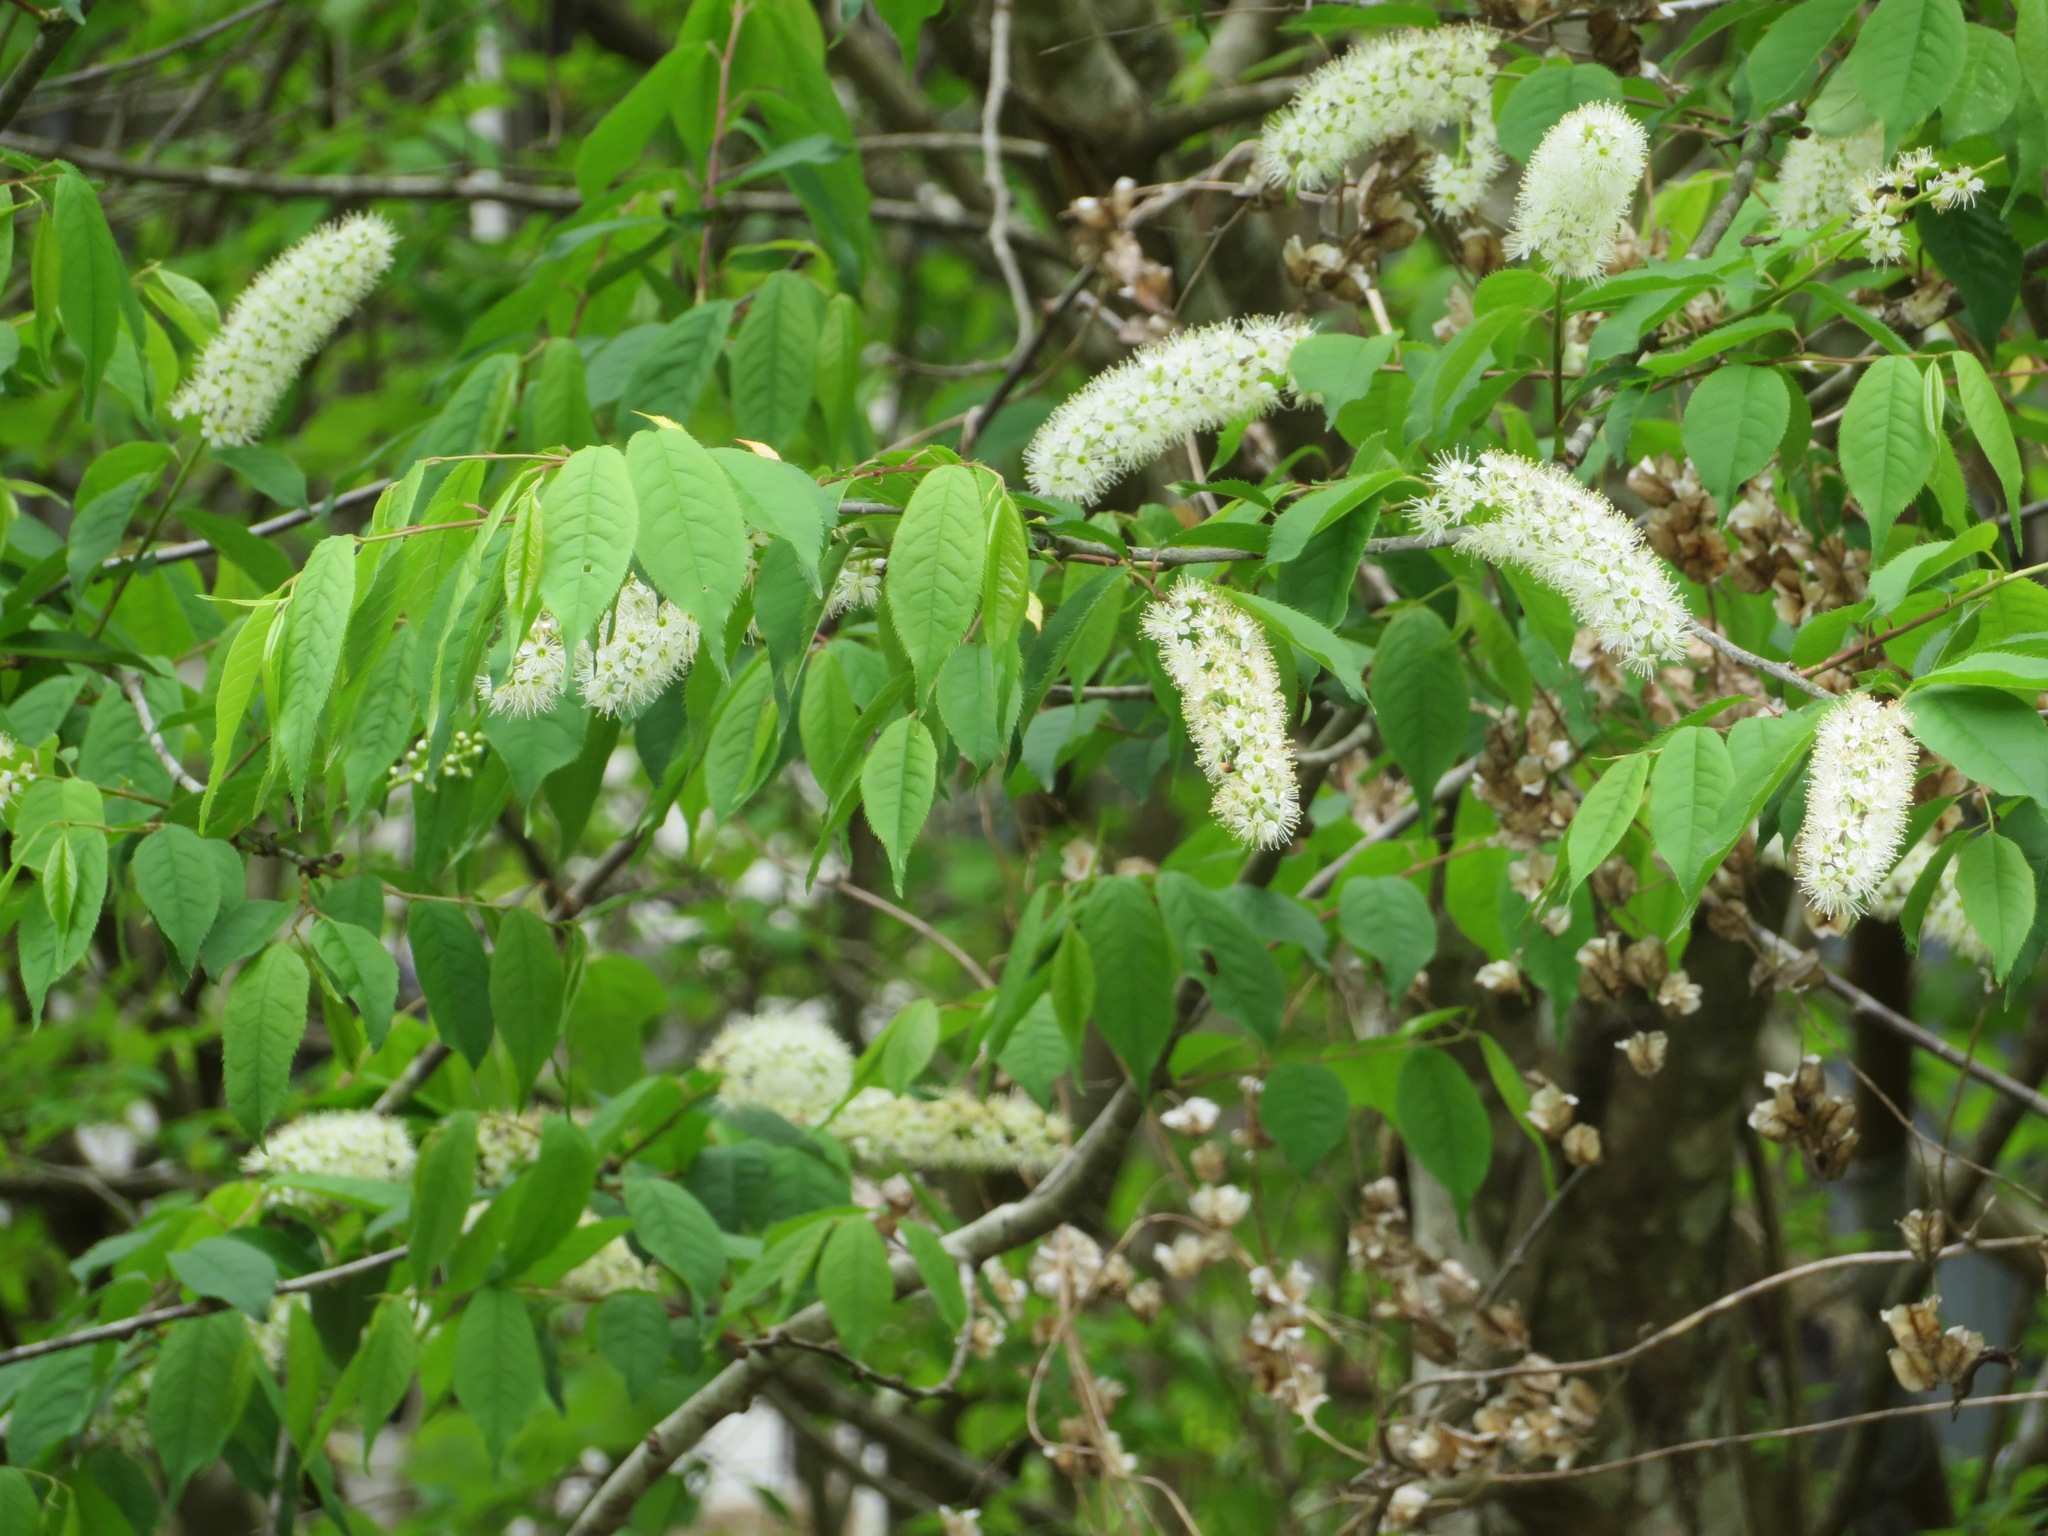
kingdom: Plantae
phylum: Tracheophyta
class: Magnoliopsida
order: Rosales
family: Rosaceae
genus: Prunus
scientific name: Prunus grayana
